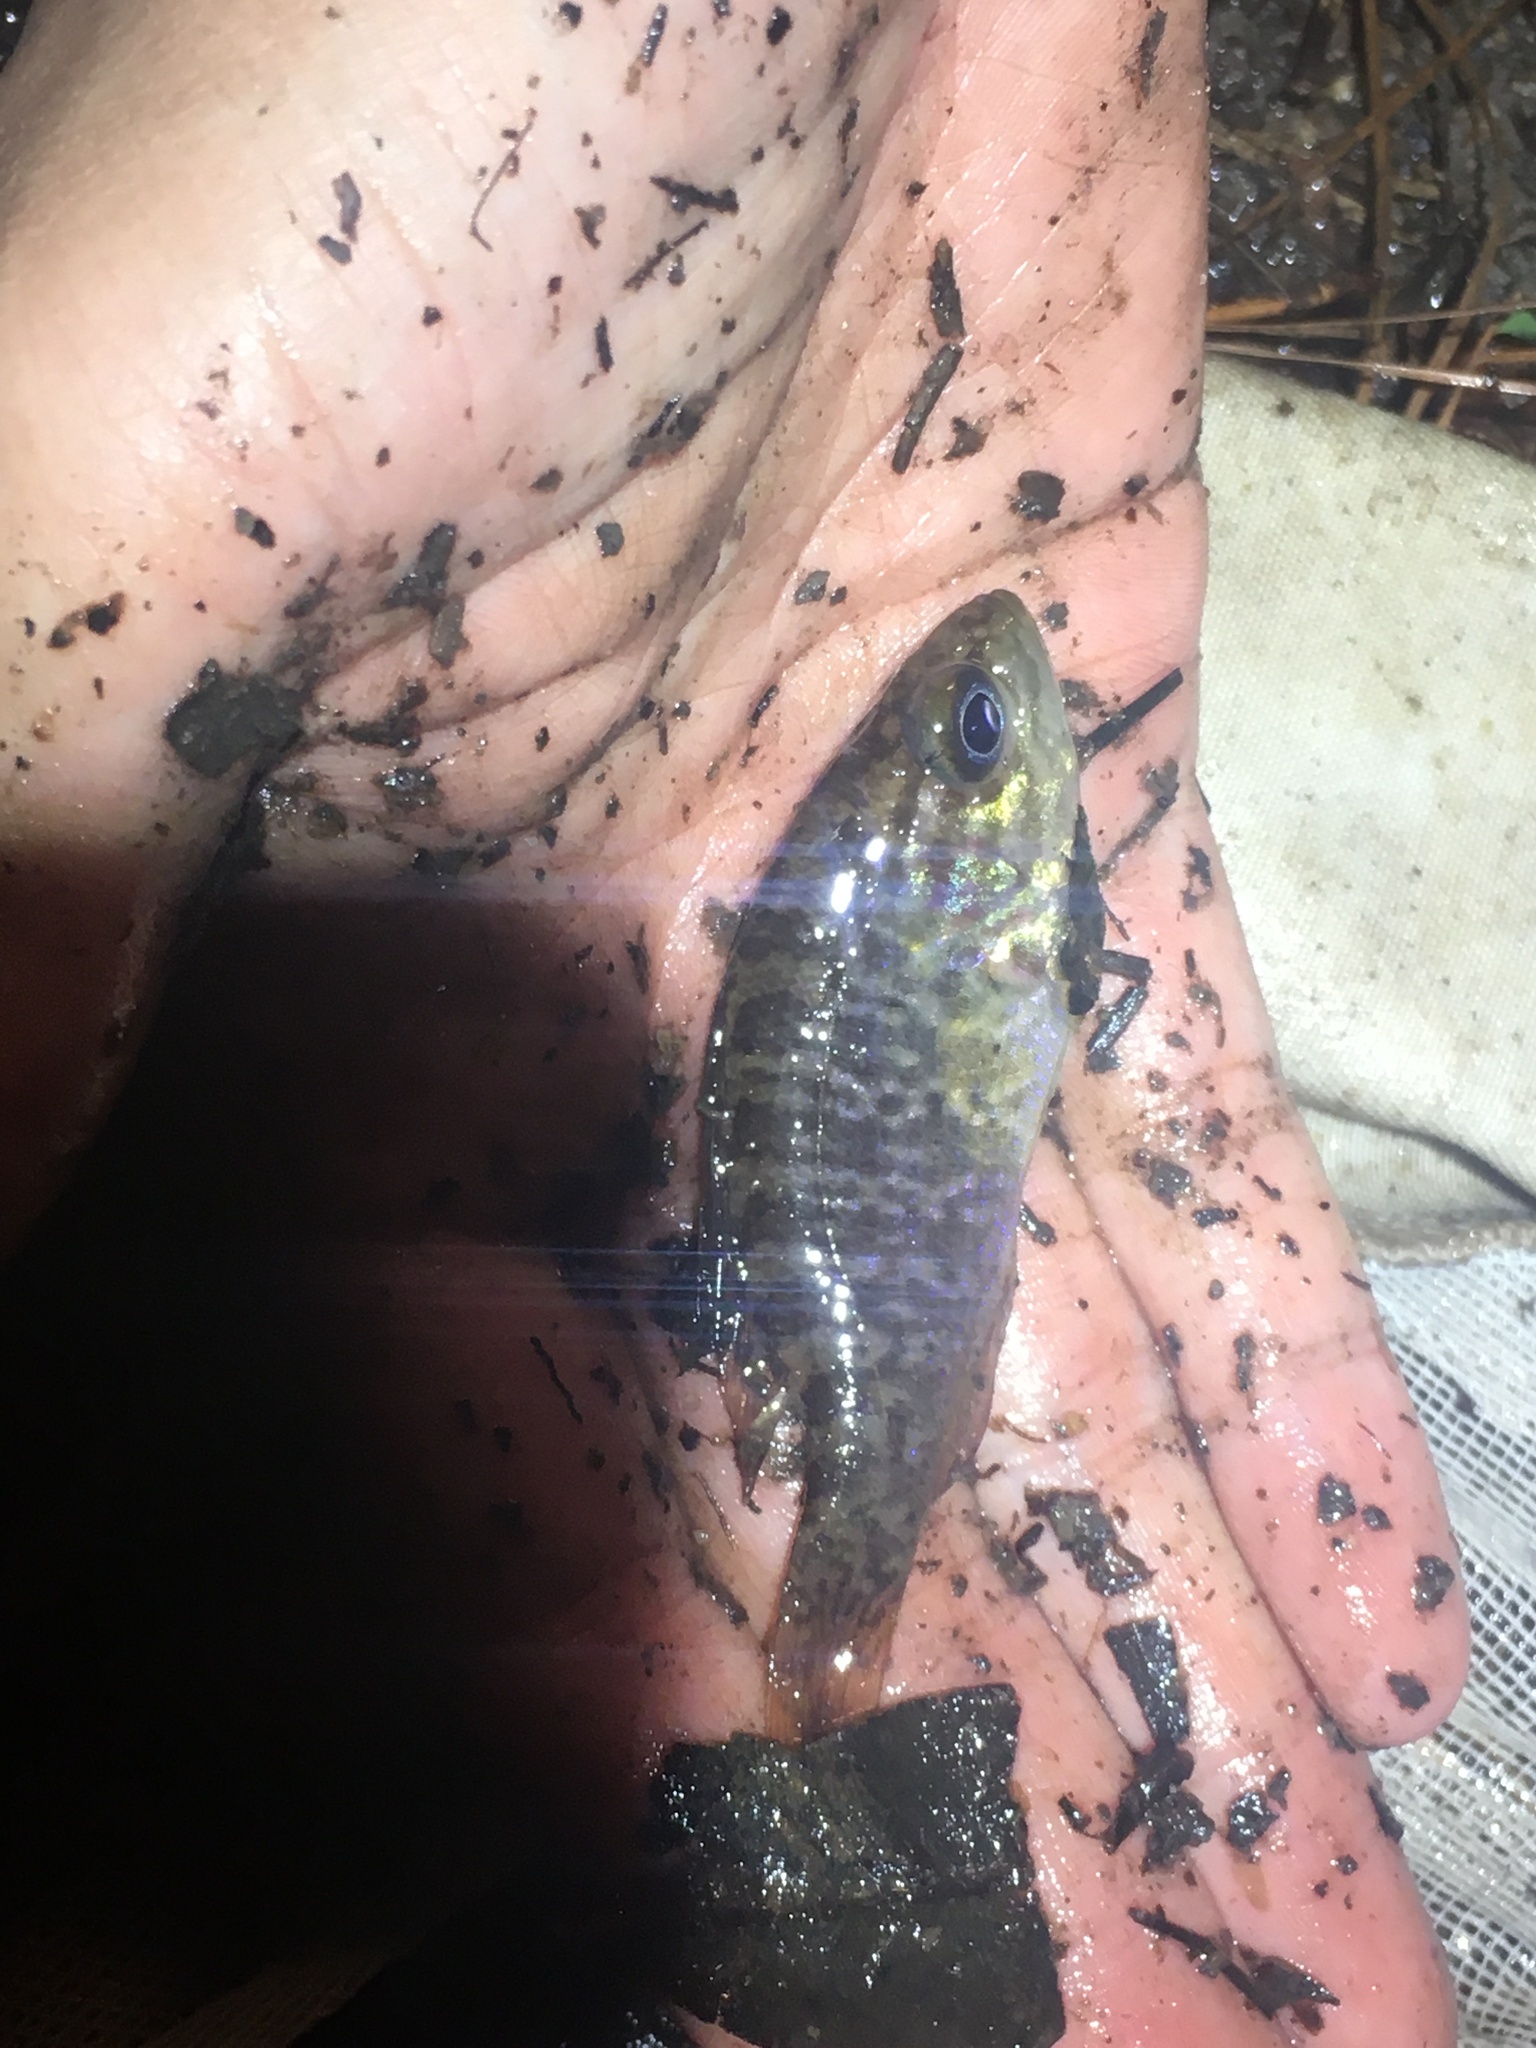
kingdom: Animalia
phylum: Chordata
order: Perciformes
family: Centrarchidae
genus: Lepomis
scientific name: Lepomis gulosus
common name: Warmouth
